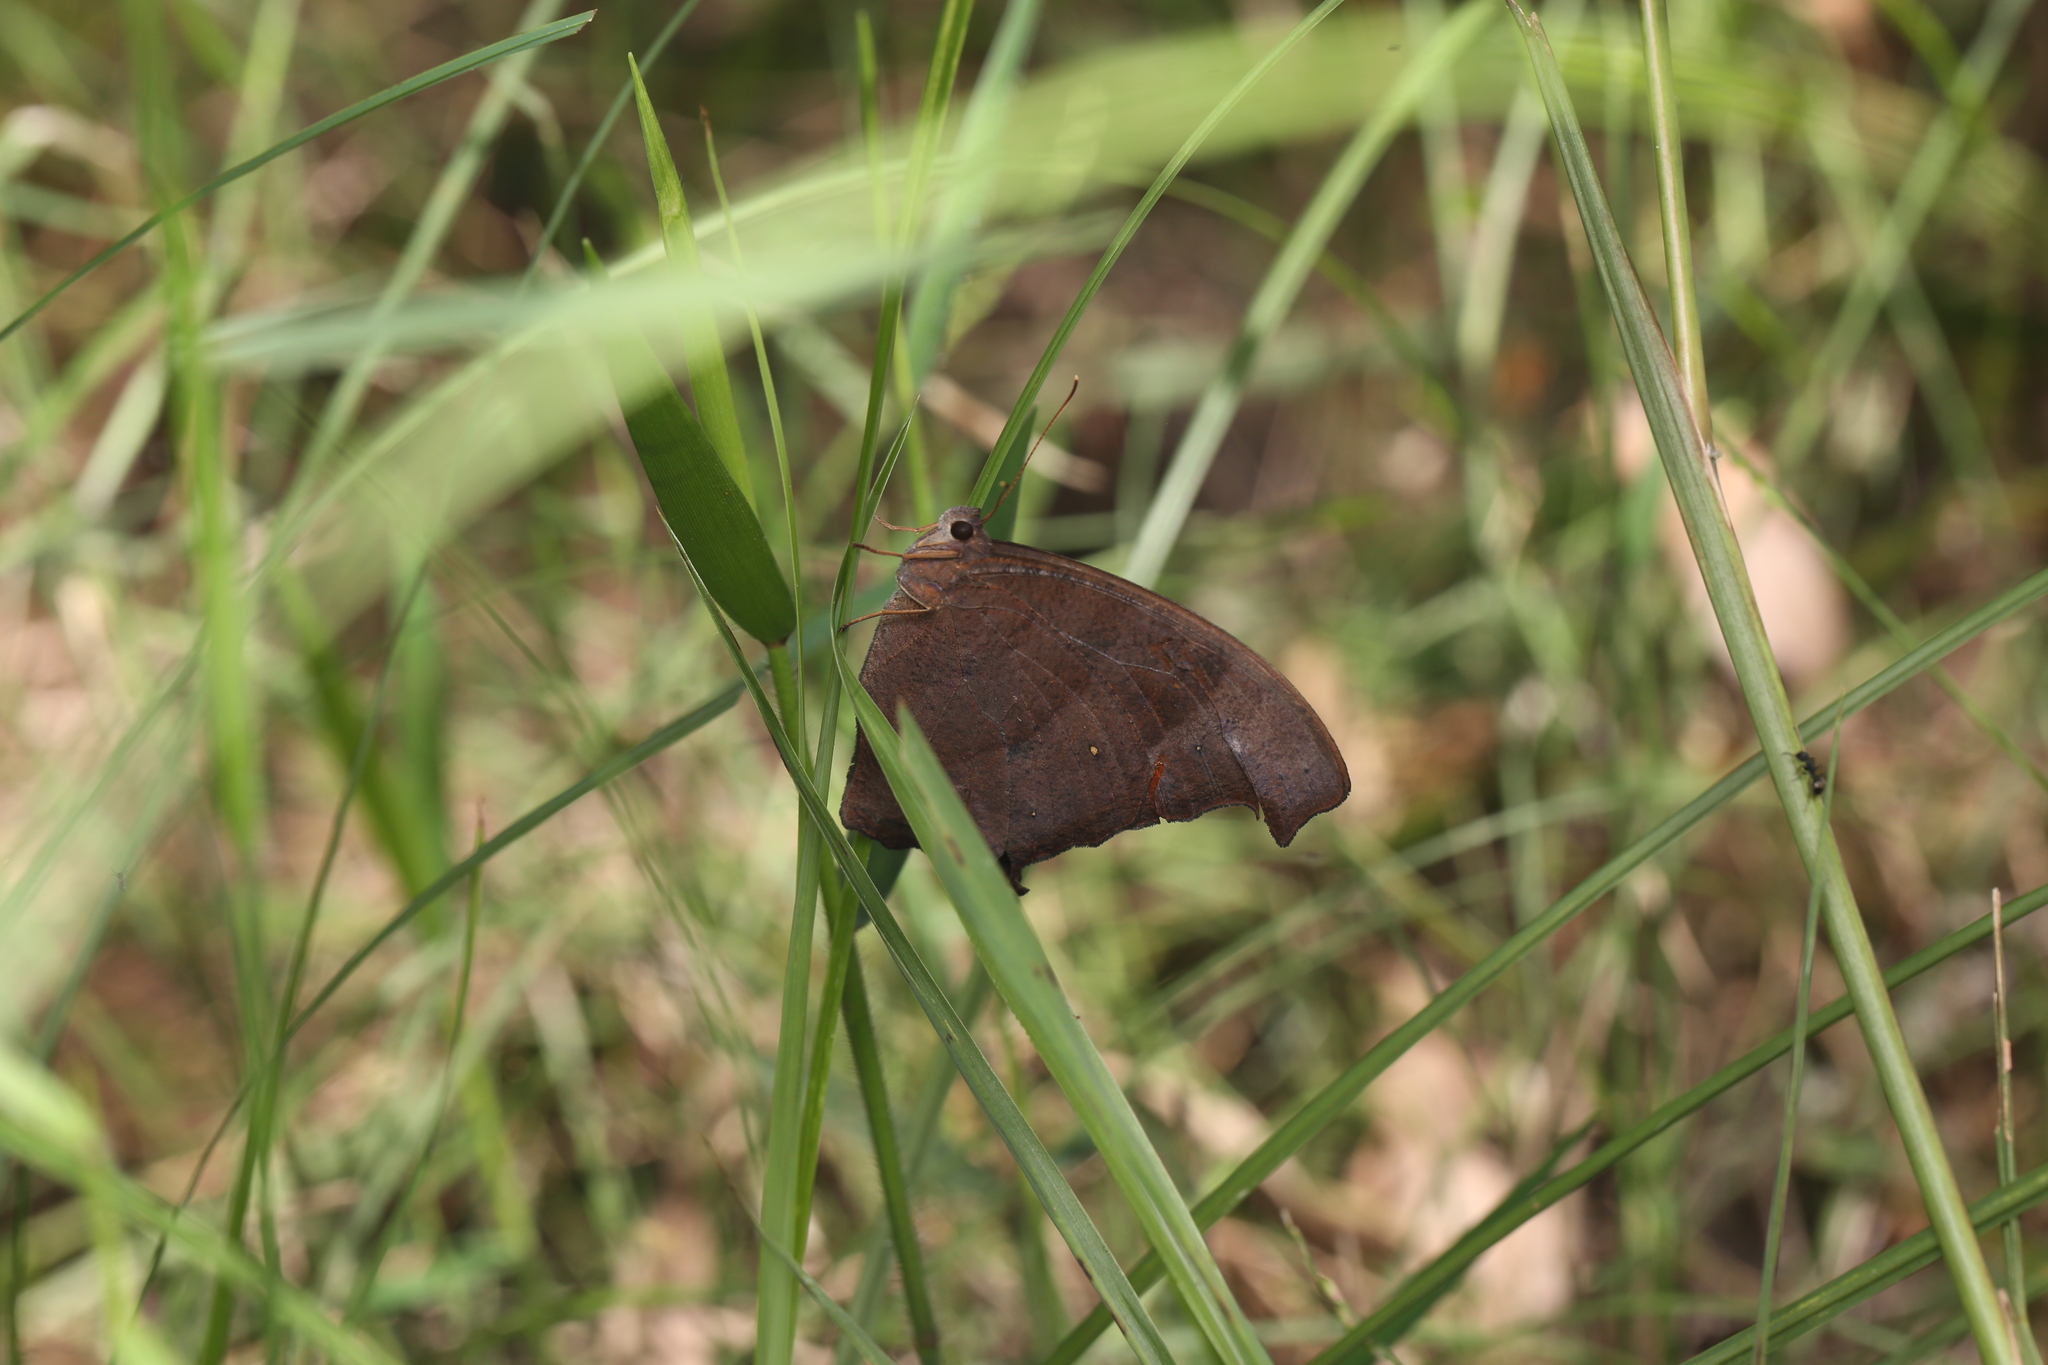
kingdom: Animalia
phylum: Arthropoda
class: Insecta
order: Lepidoptera
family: Nymphalidae
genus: Melanitis
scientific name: Melanitis leda
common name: Twilight brown
